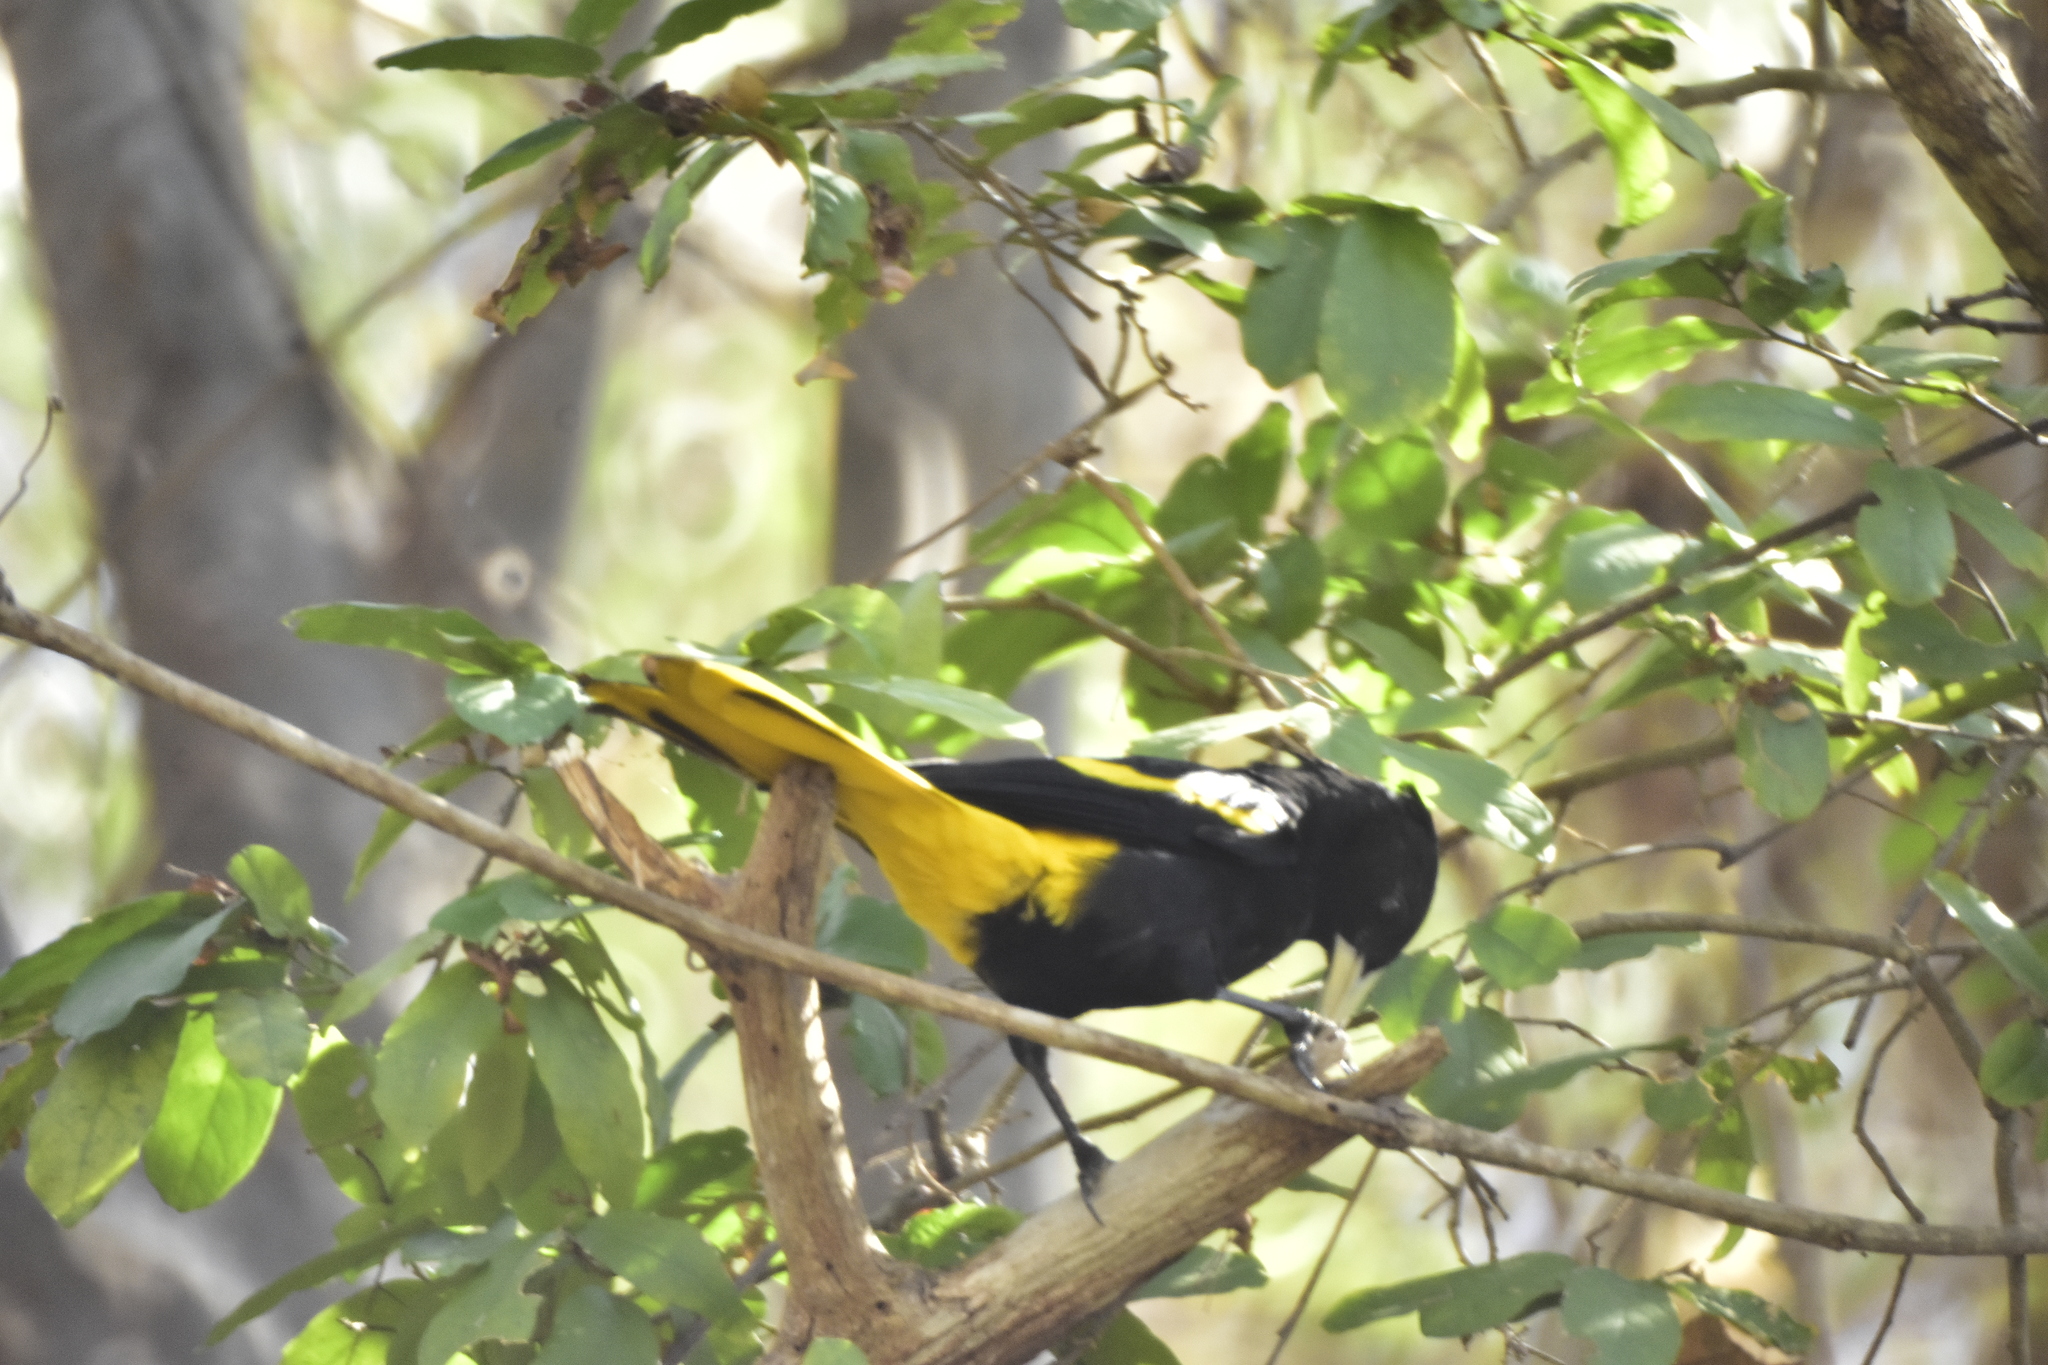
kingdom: Animalia
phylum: Chordata
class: Aves
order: Passeriformes
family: Icteridae
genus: Cacicus
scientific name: Cacicus melanicterus
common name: Yellow-winged cacique
